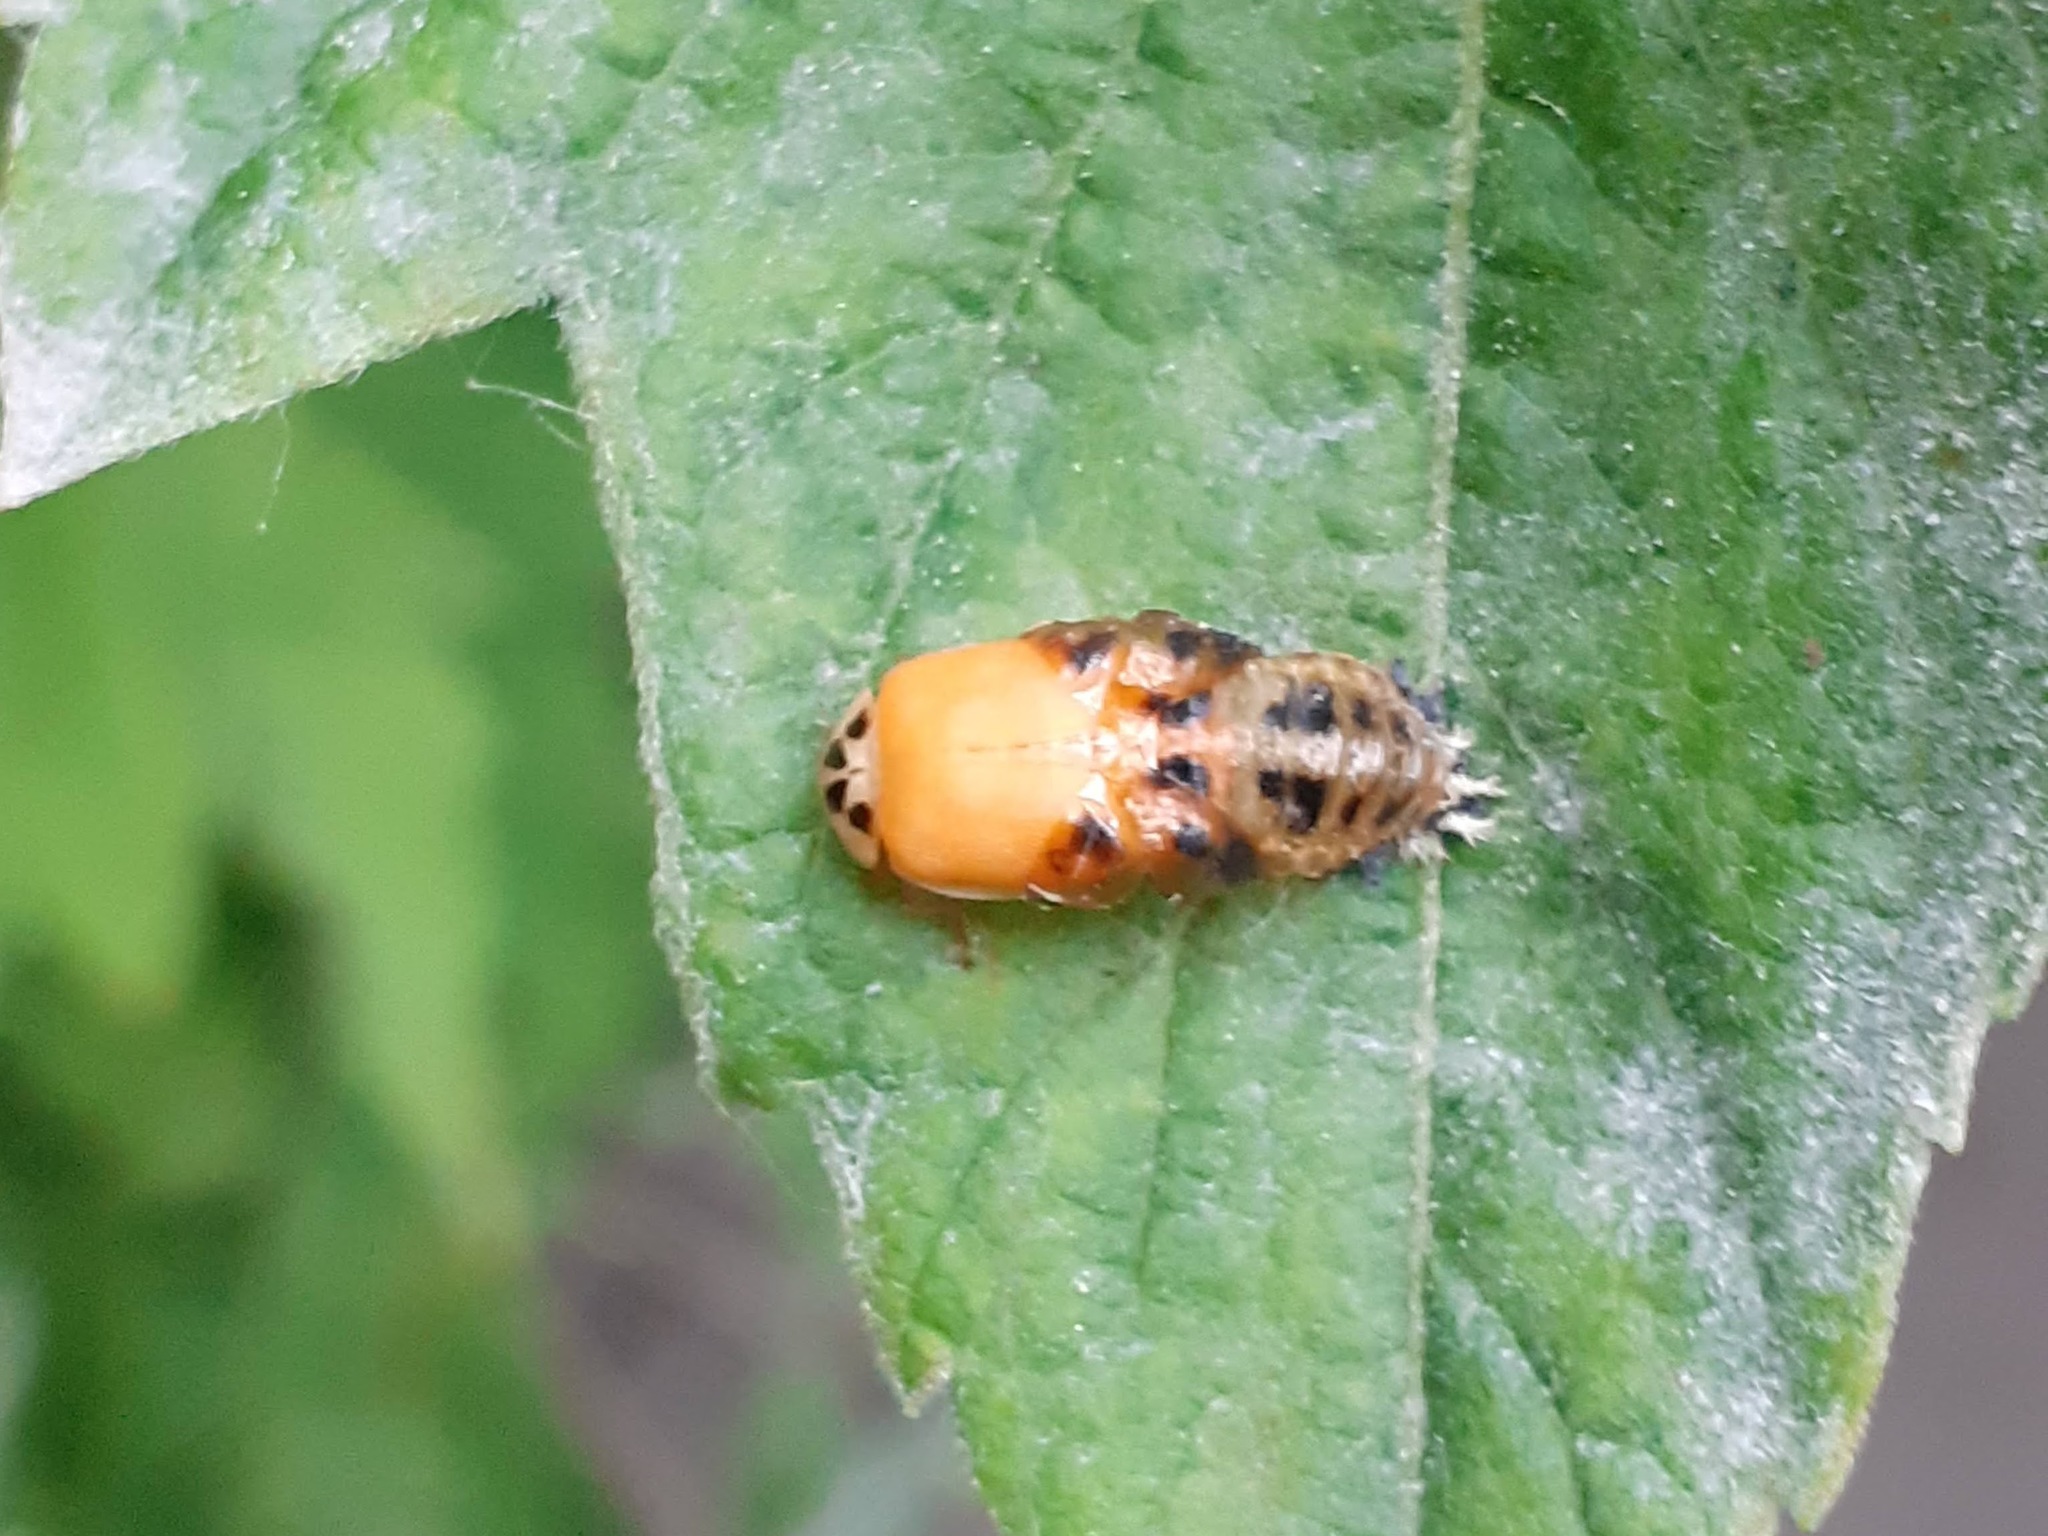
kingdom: Animalia
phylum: Arthropoda
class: Insecta
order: Coleoptera
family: Coccinellidae
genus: Harmonia
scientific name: Harmonia axyridis
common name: Harlequin ladybird
